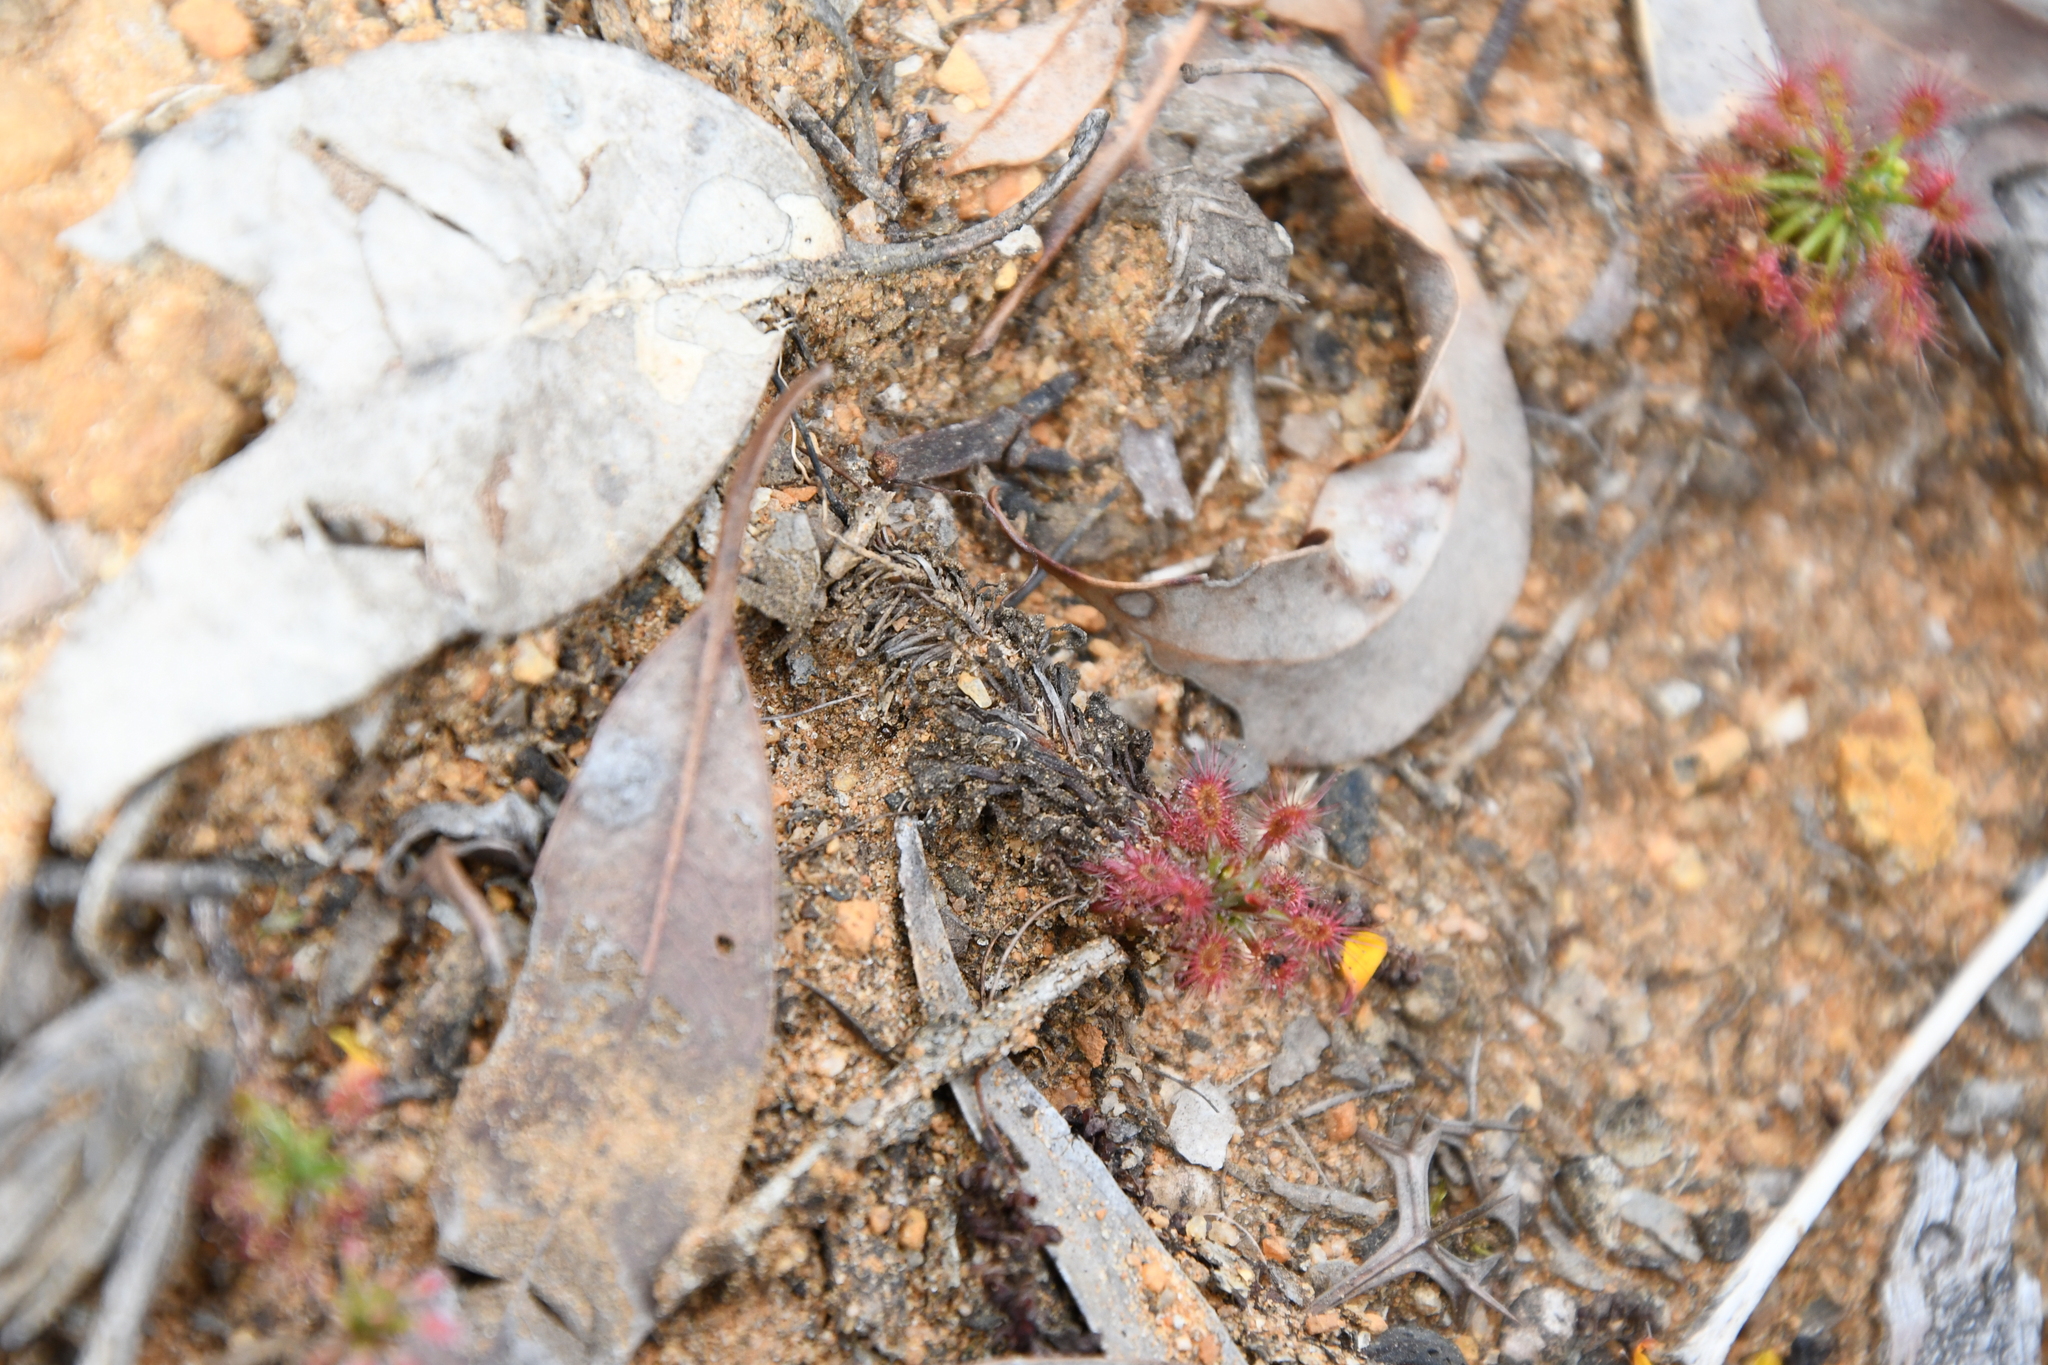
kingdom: Plantae
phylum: Tracheophyta
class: Magnoliopsida
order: Caryophyllales
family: Droseraceae
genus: Drosera
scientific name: Drosera paleacea
